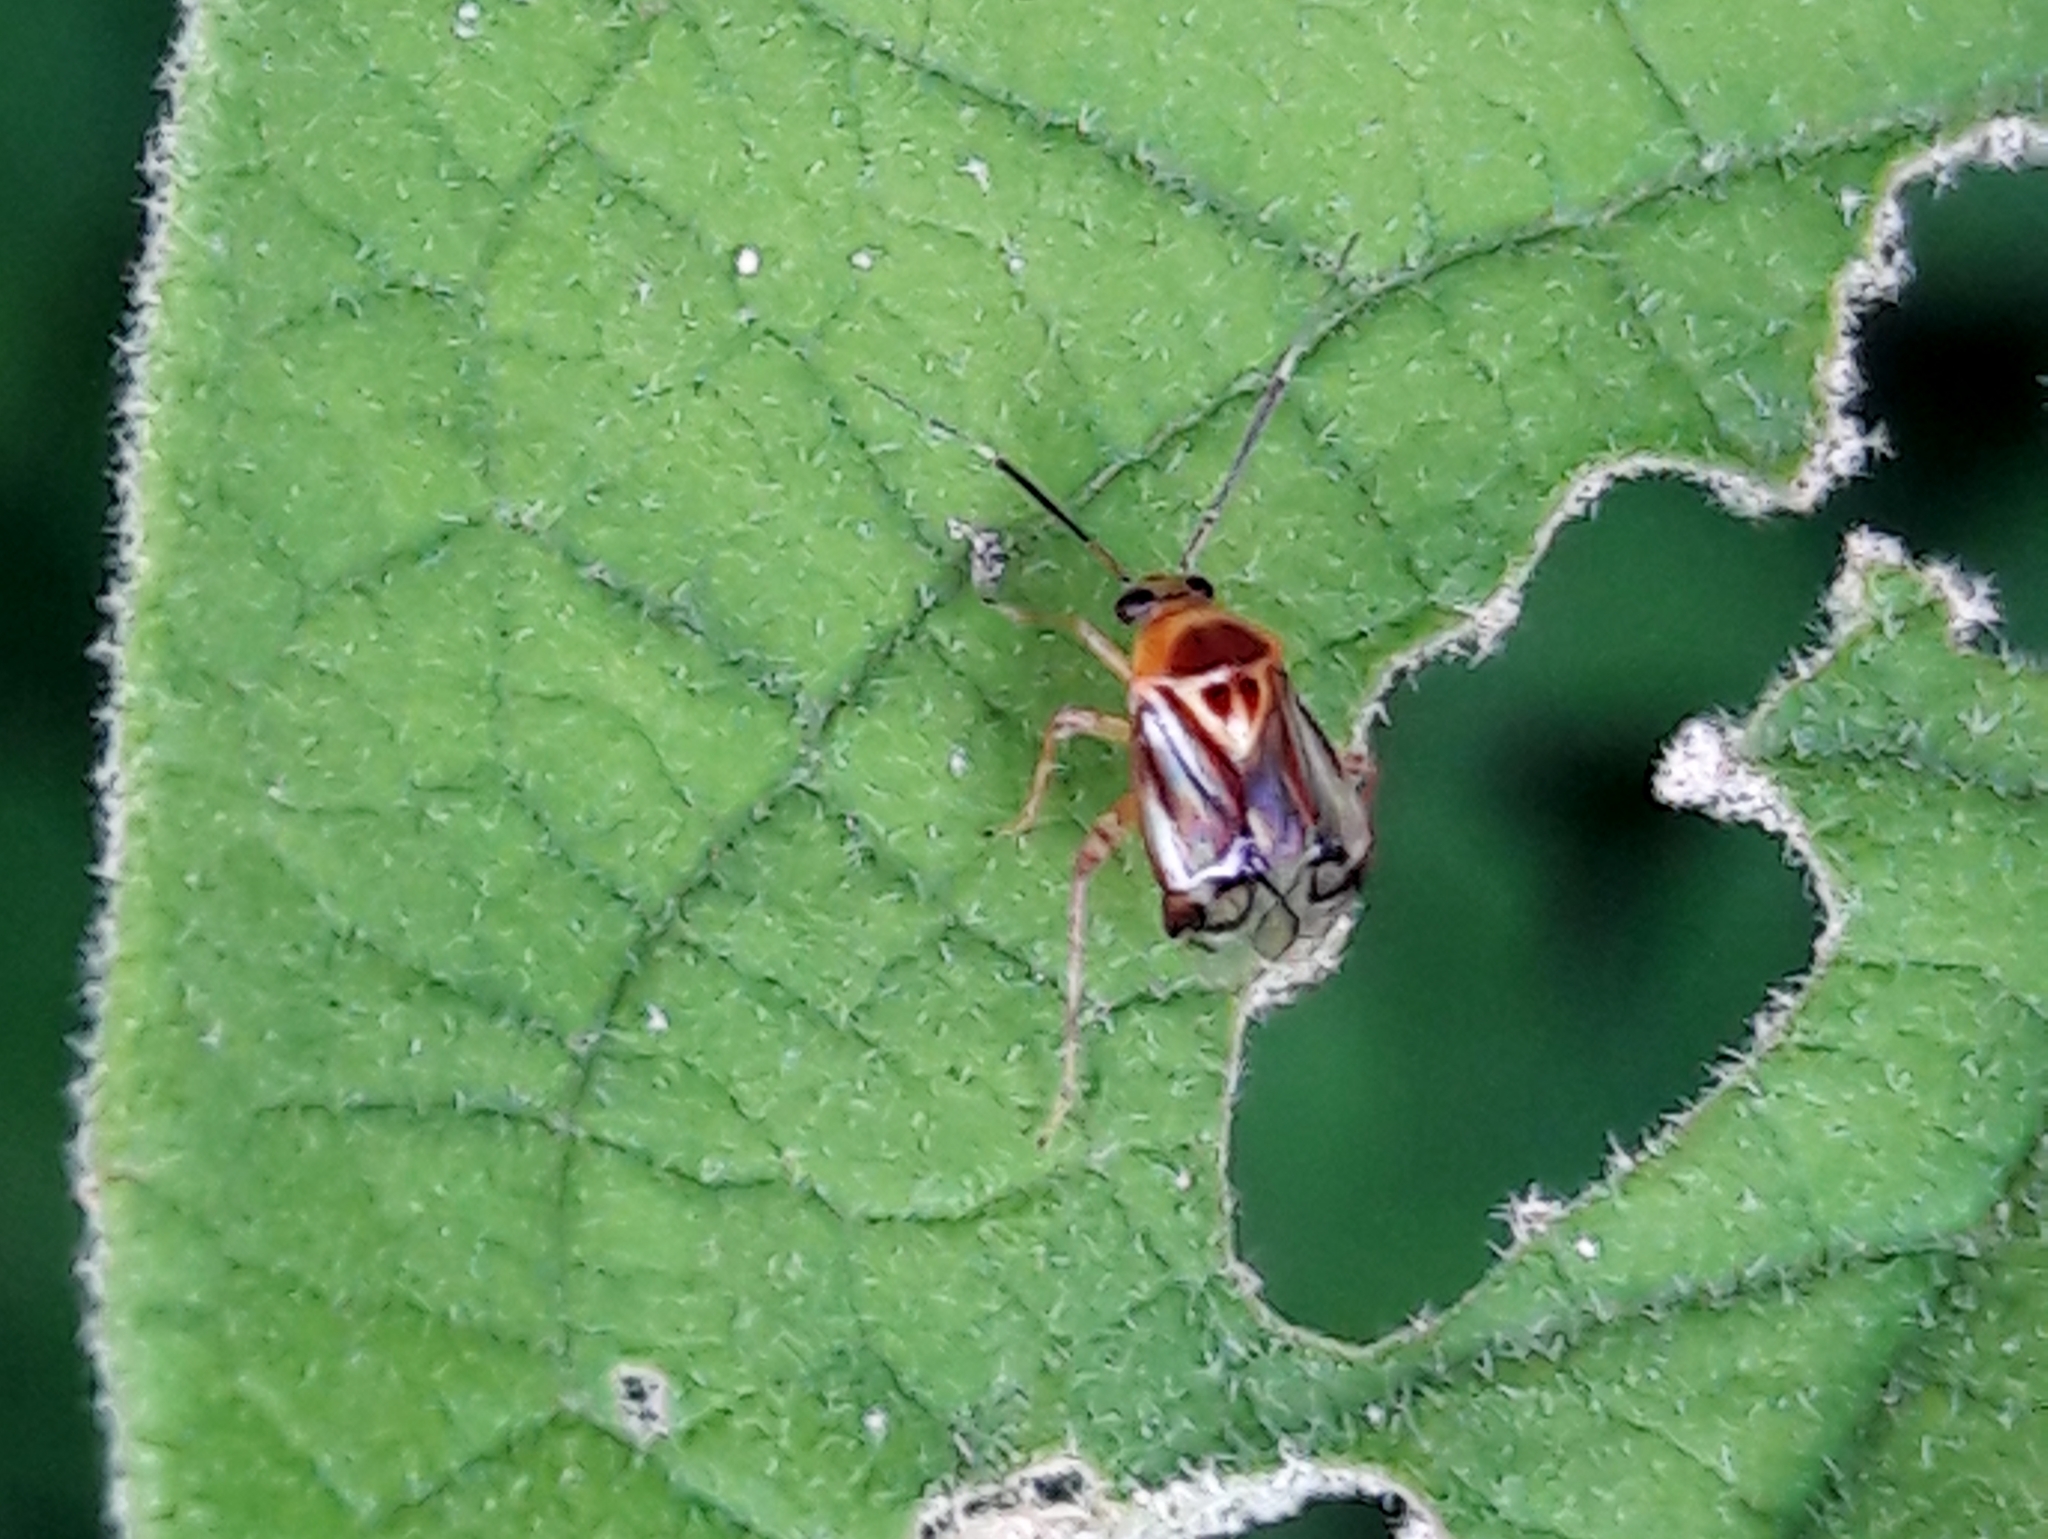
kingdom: Animalia
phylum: Arthropoda
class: Insecta
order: Hemiptera
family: Miridae
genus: Horciasoides
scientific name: Horciasoides notatus
